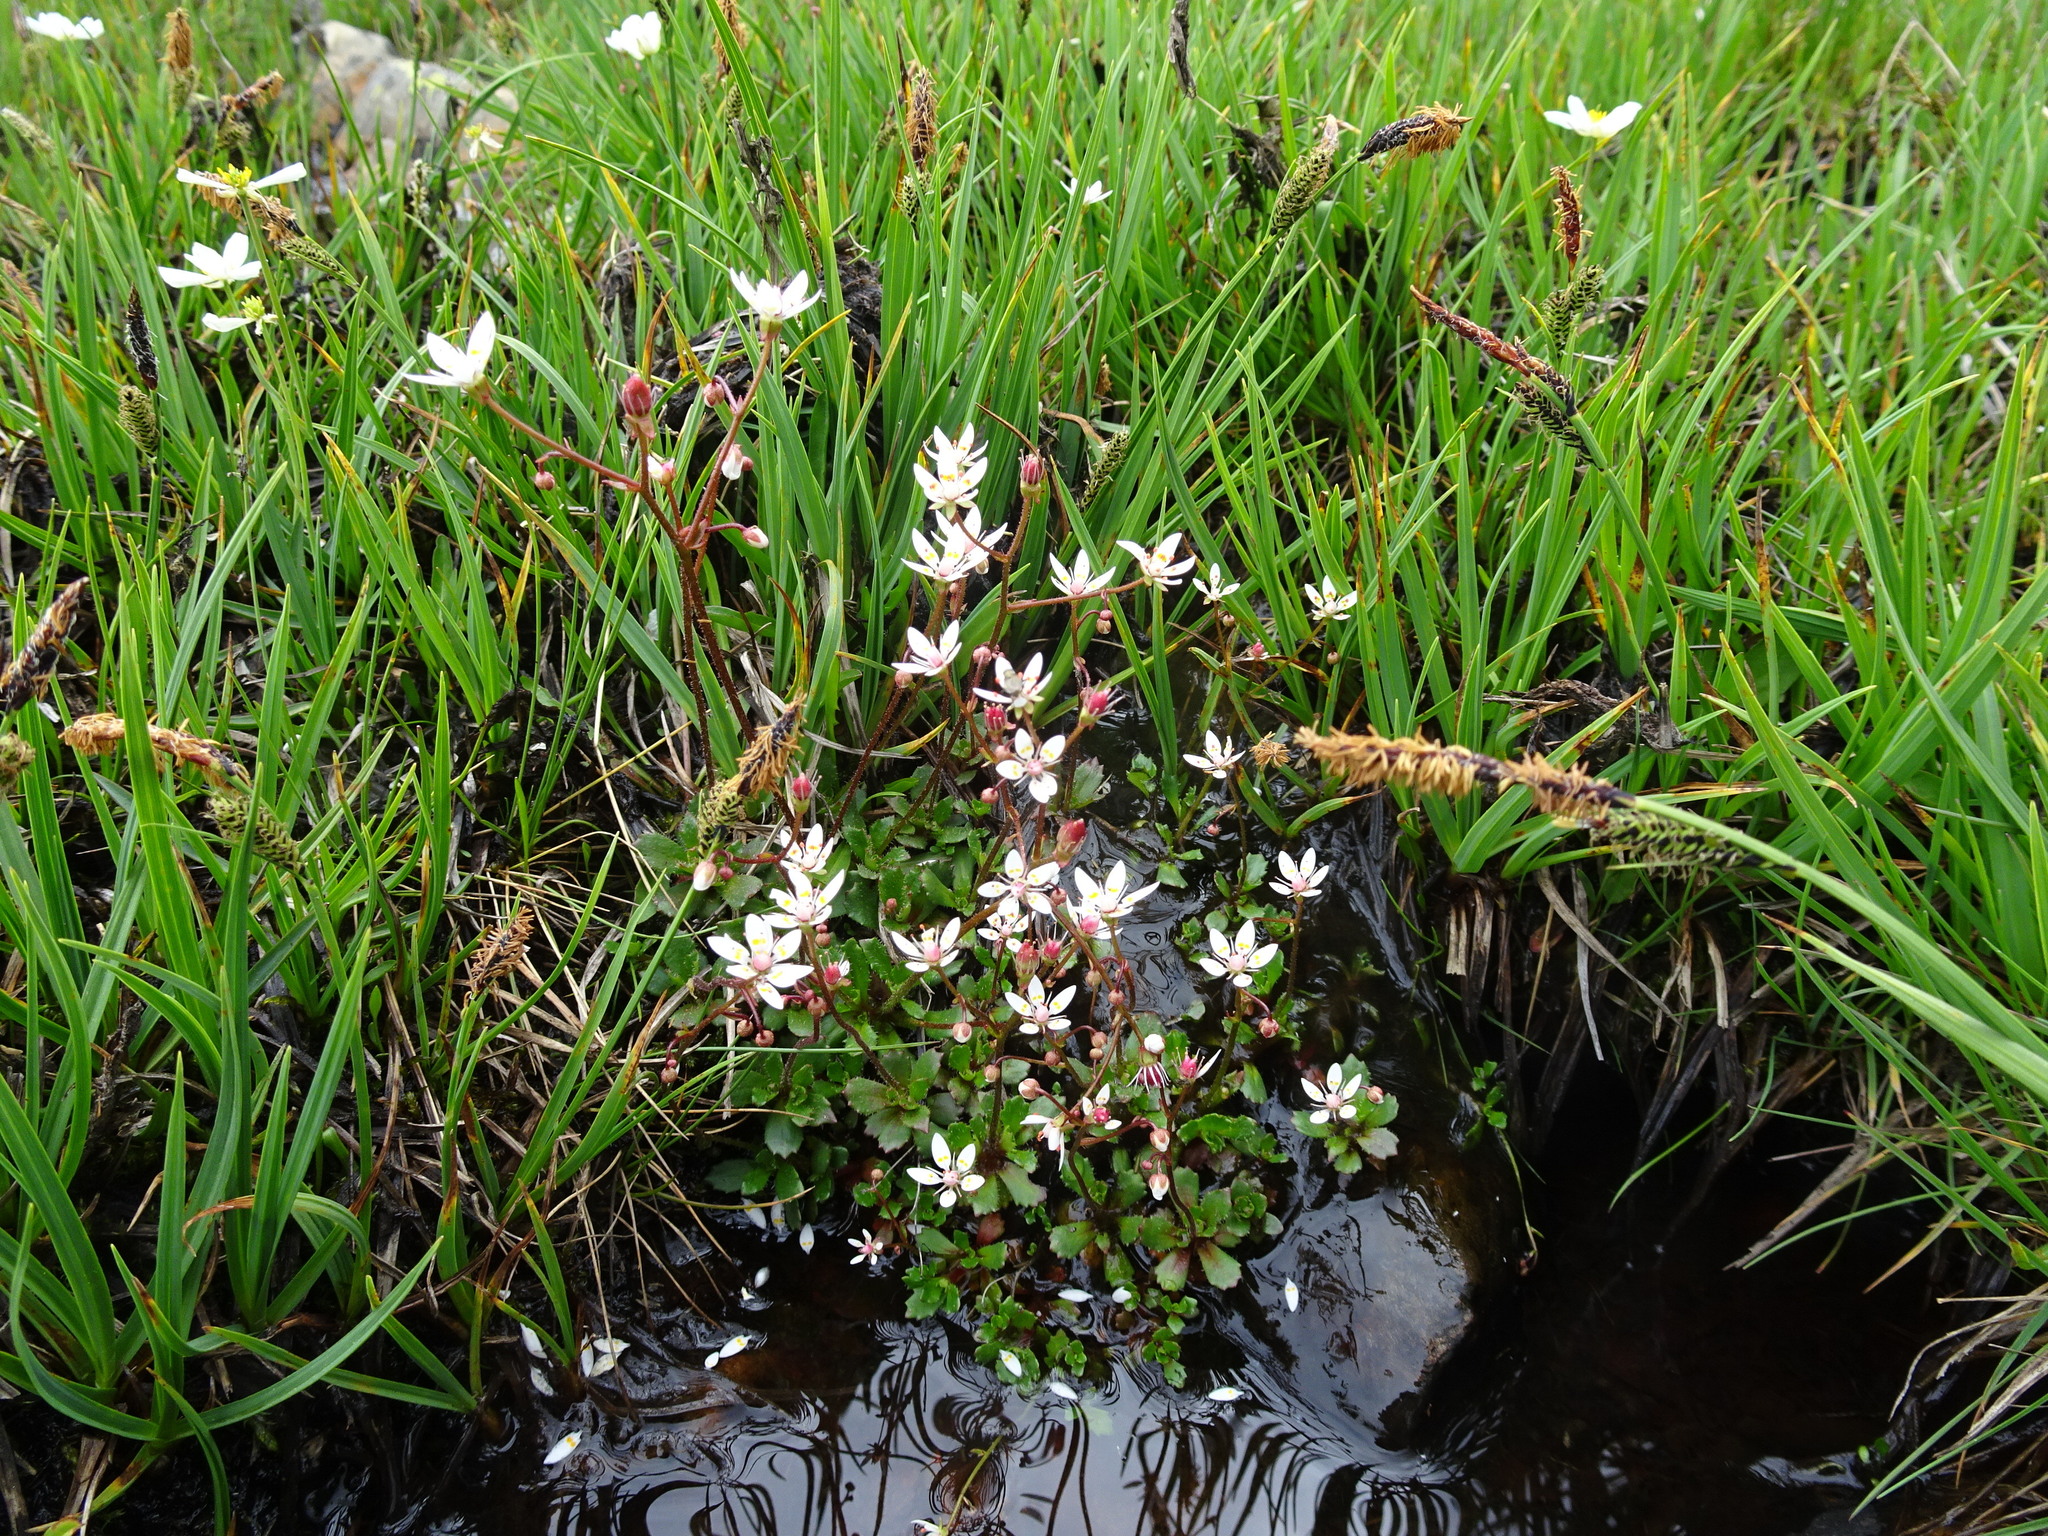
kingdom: Plantae
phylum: Tracheophyta
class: Magnoliopsida
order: Saxifragales
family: Saxifragaceae
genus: Micranthes
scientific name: Micranthes stellaris
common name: Starry saxifrage
